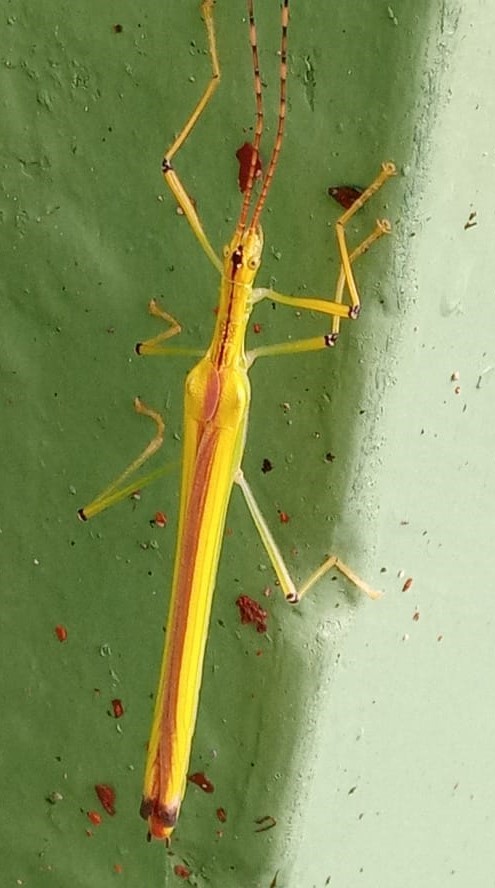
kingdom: Animalia
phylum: Arthropoda
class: Insecta
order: Phasmida
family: Pseudophasmatidae
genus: Anthericonia
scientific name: Anthericonia anketeschke
